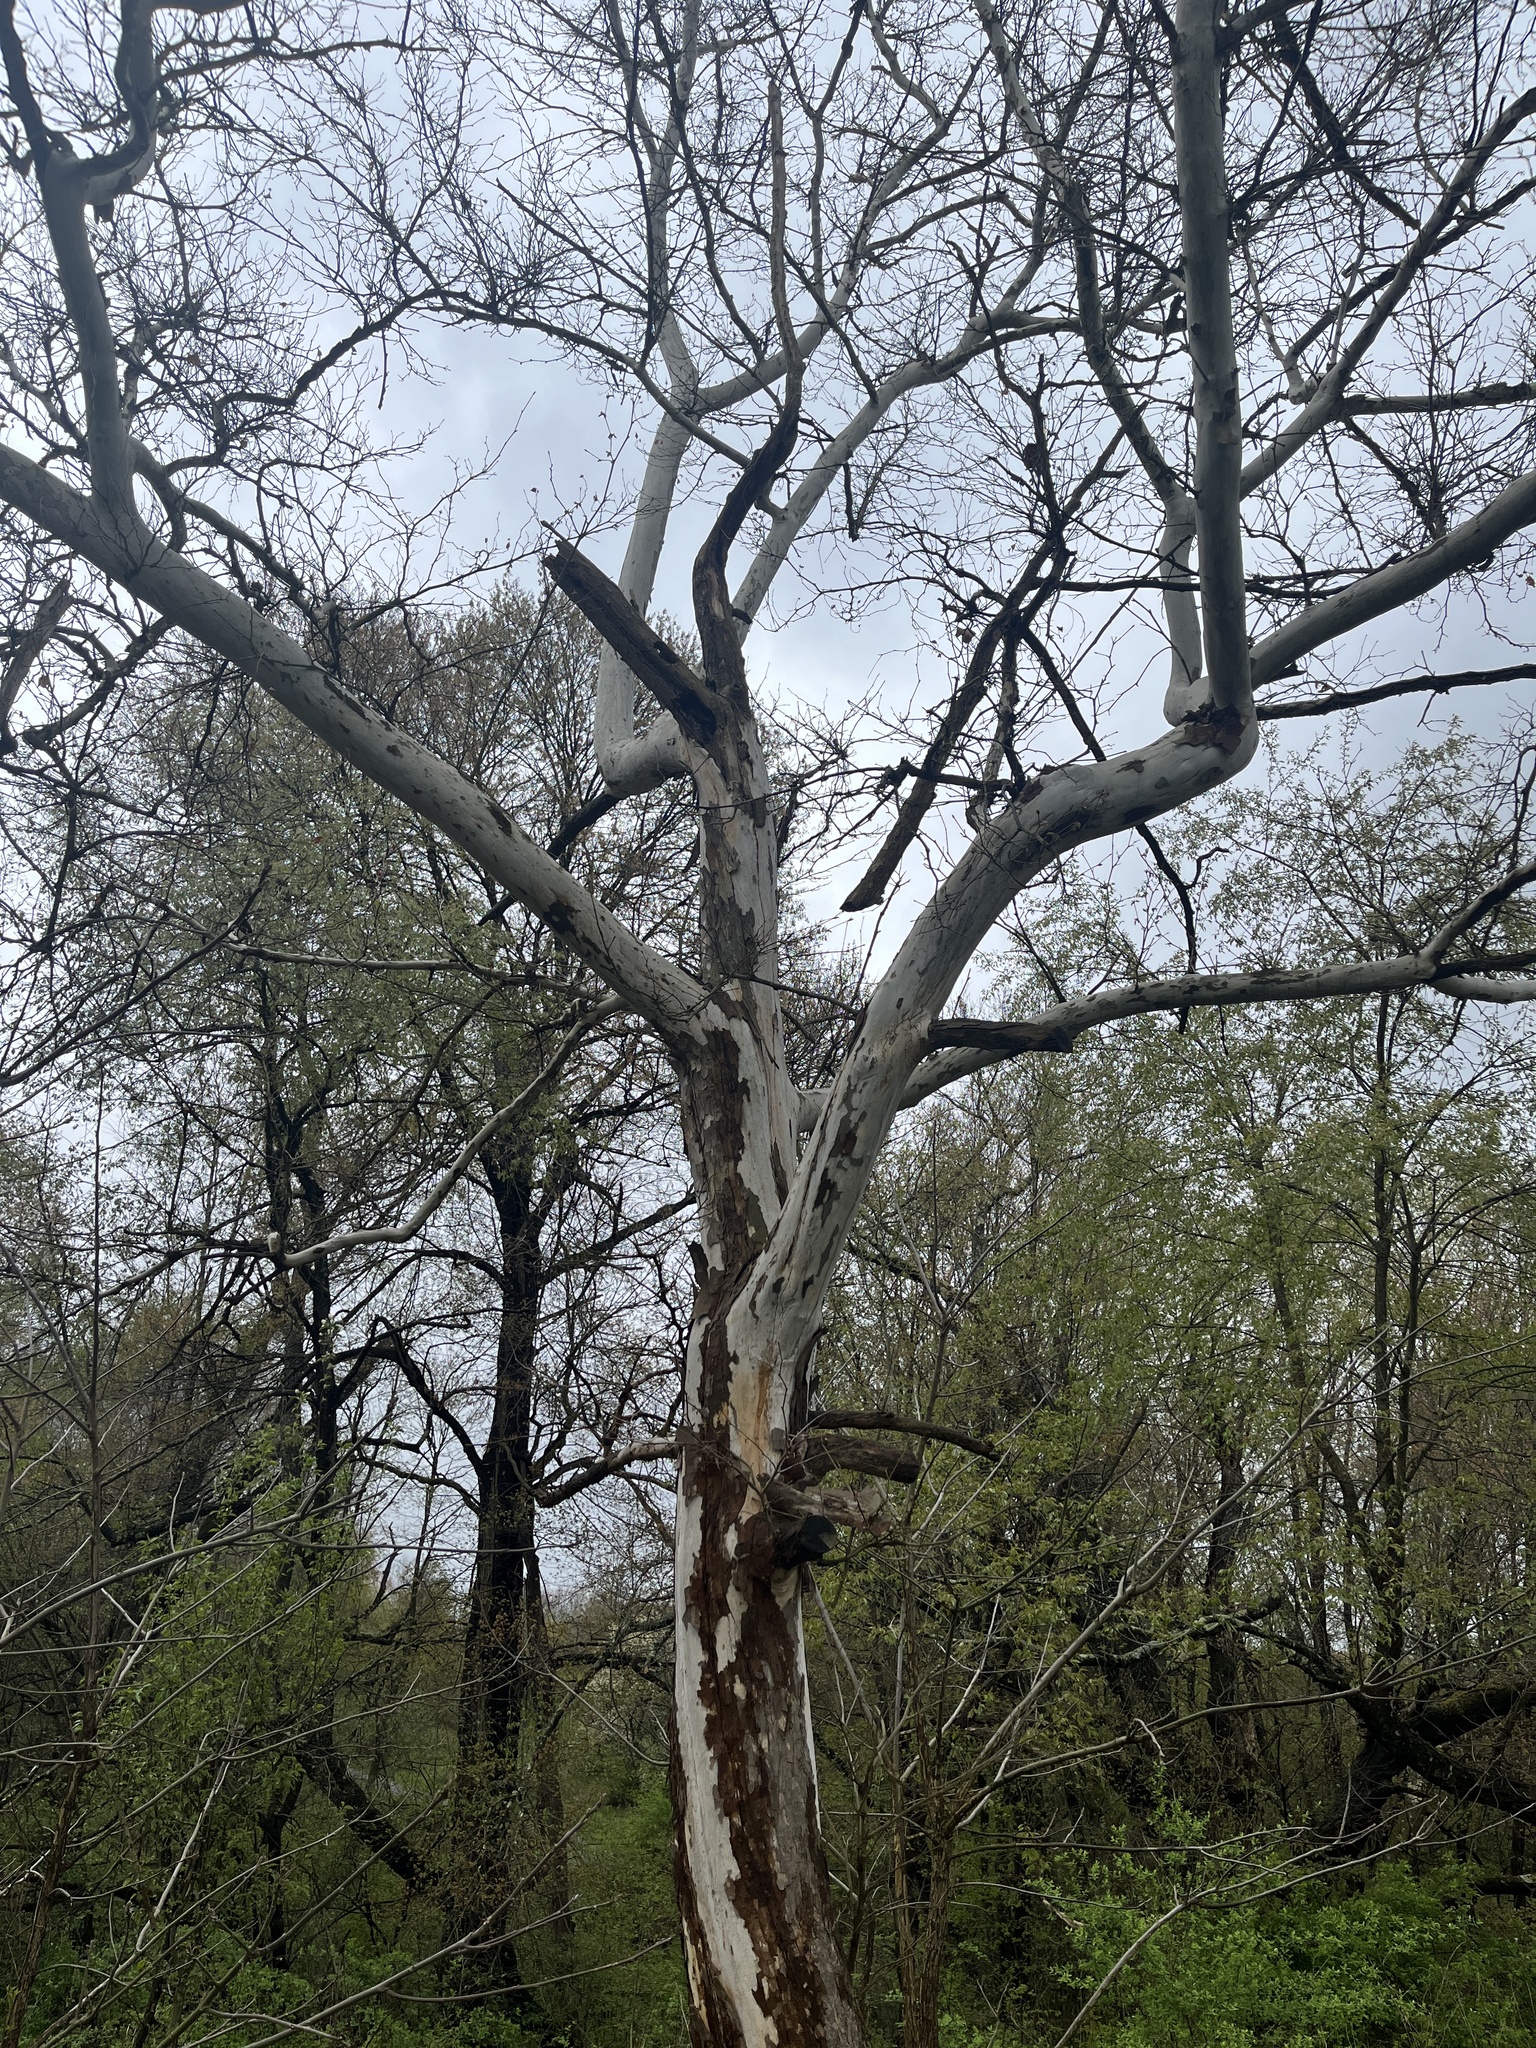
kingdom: Plantae
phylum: Tracheophyta
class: Magnoliopsida
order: Proteales
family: Platanaceae
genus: Platanus
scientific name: Platanus occidentalis
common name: American sycamore
